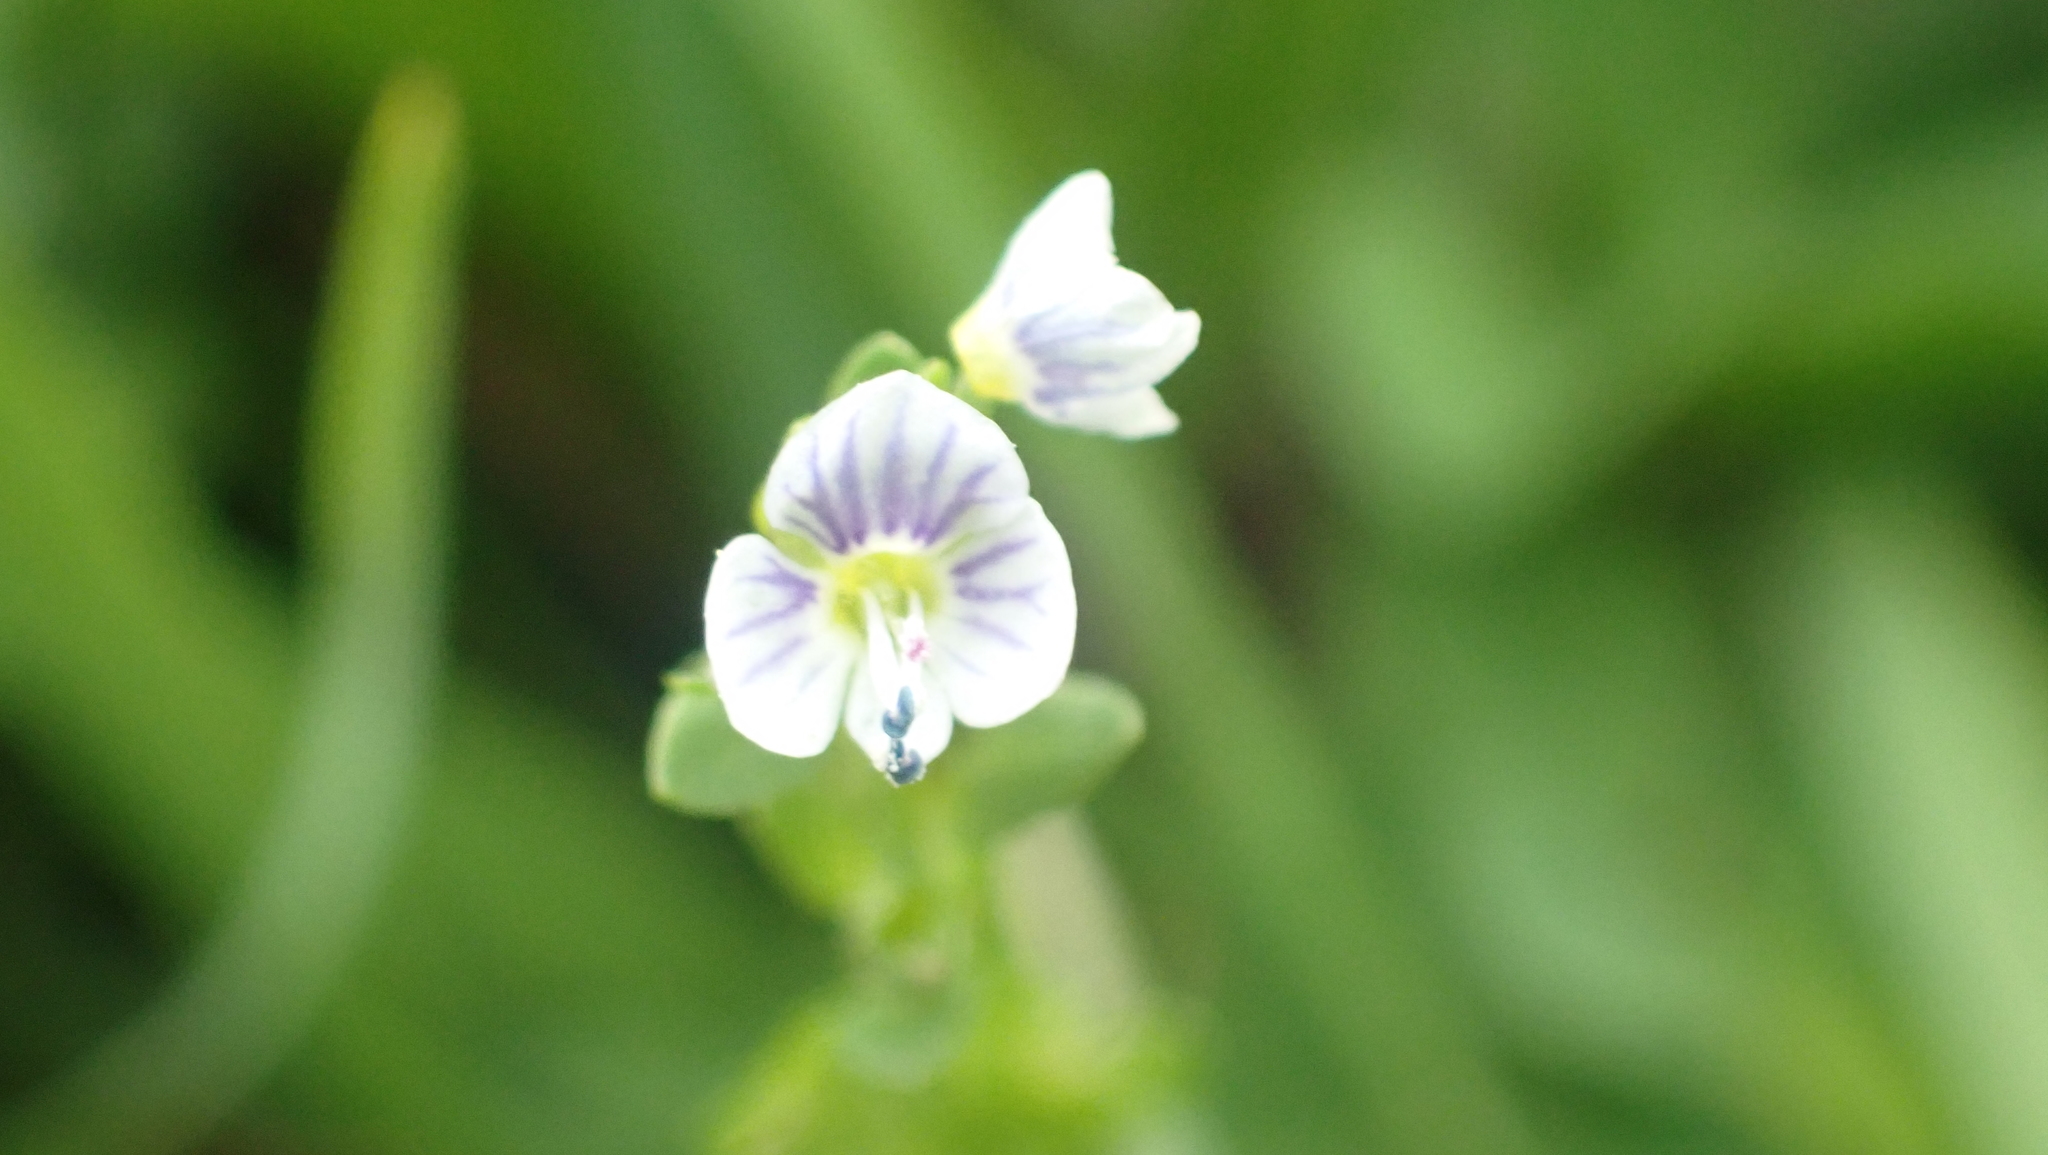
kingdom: Plantae
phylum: Tracheophyta
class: Magnoliopsida
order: Lamiales
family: Plantaginaceae
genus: Veronica
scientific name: Veronica serpyllifolia
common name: Thyme-leaved speedwell
